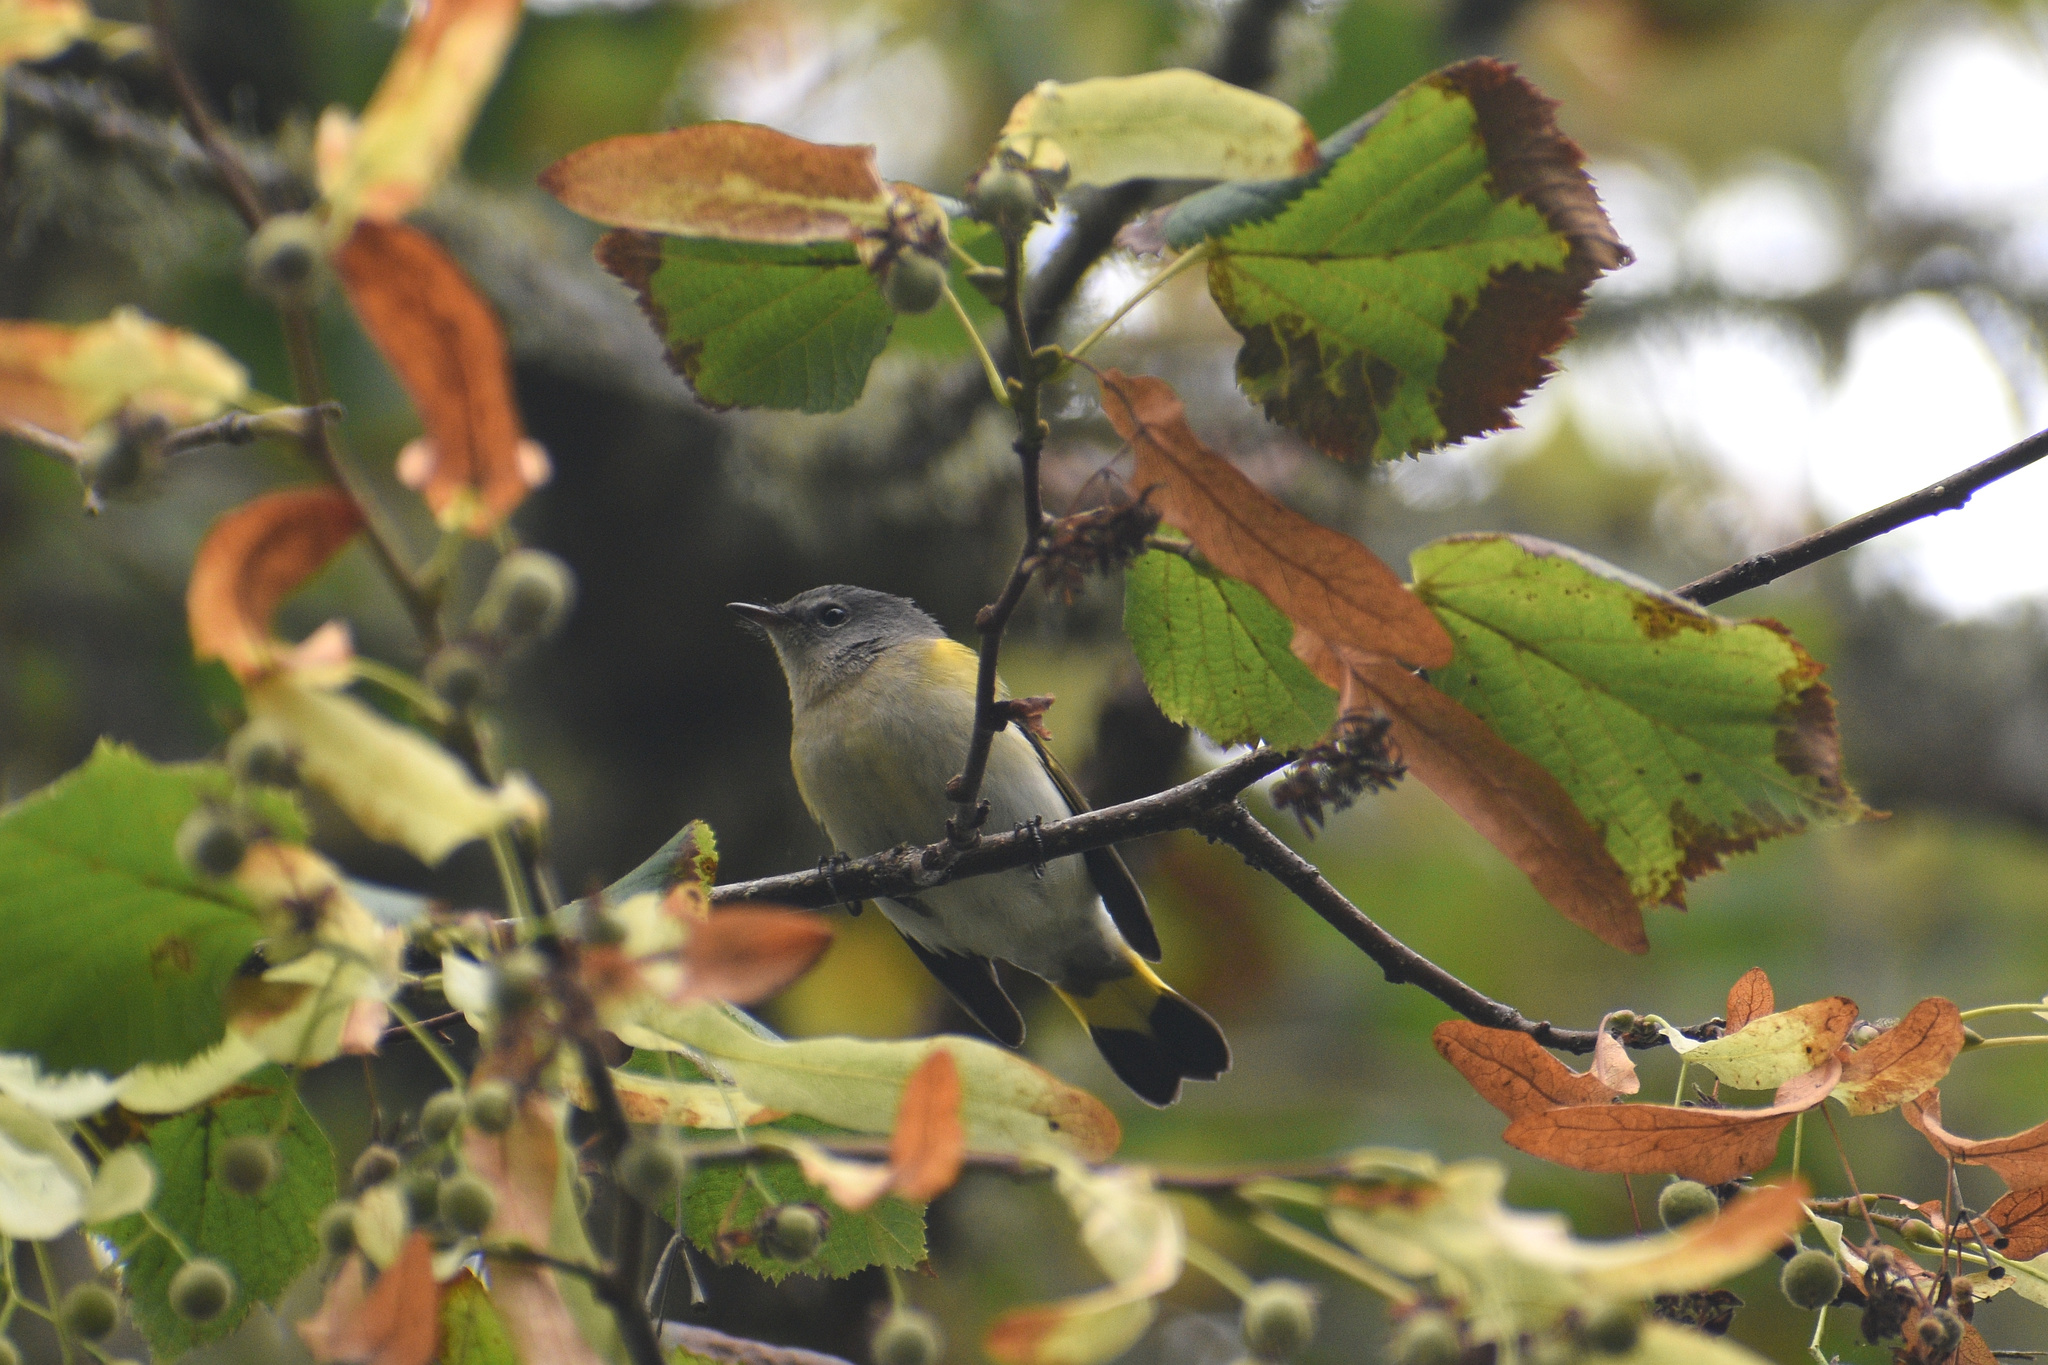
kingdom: Animalia
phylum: Chordata
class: Aves
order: Passeriformes
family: Parulidae
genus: Setophaga
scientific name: Setophaga ruticilla
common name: American redstart
